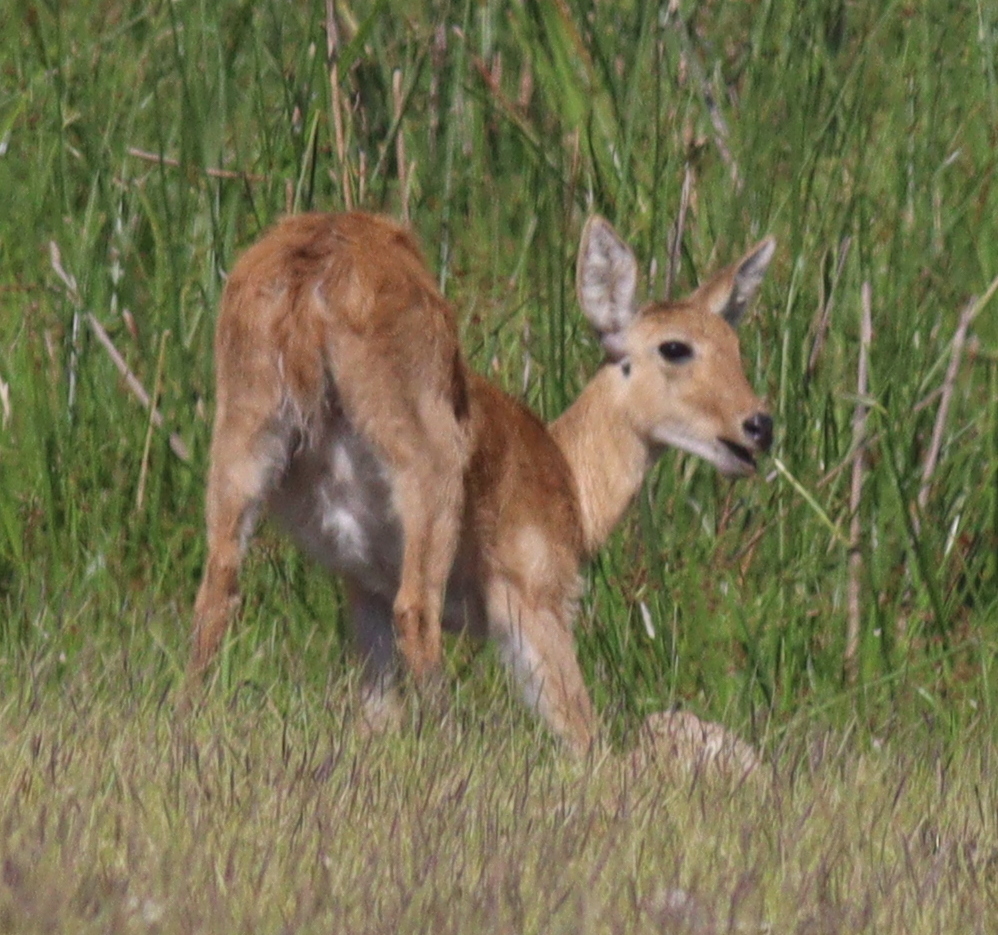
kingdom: Animalia
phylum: Chordata
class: Mammalia
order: Artiodactyla
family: Bovidae
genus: Redunca
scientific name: Redunca redunca
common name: Common reedbuck
